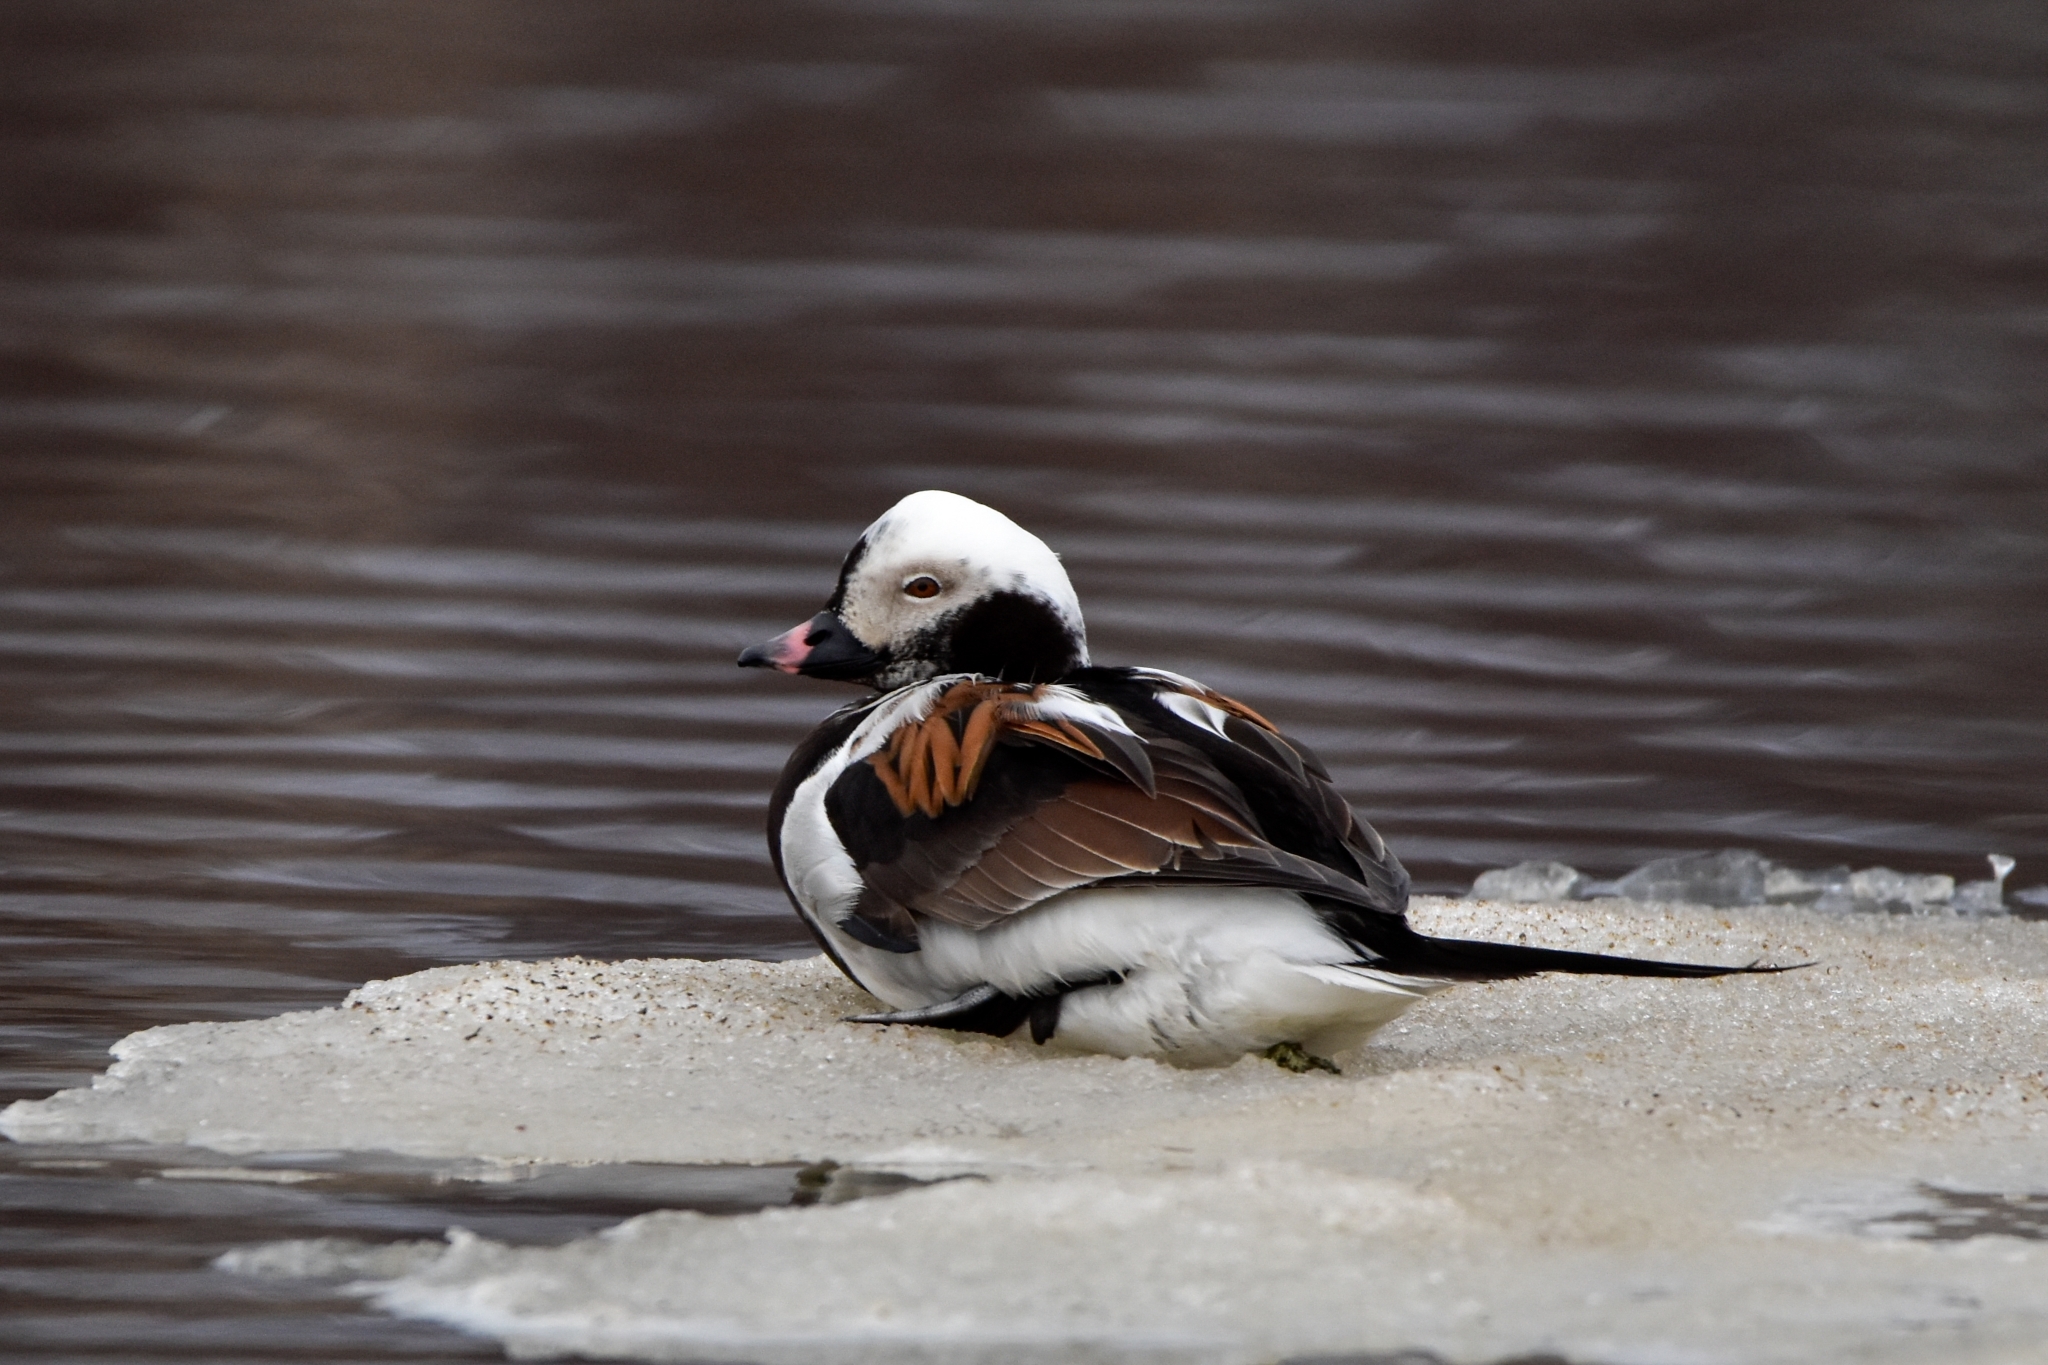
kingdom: Animalia
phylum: Chordata
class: Aves
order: Anseriformes
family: Anatidae
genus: Clangula
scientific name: Clangula hyemalis
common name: Long-tailed duck
